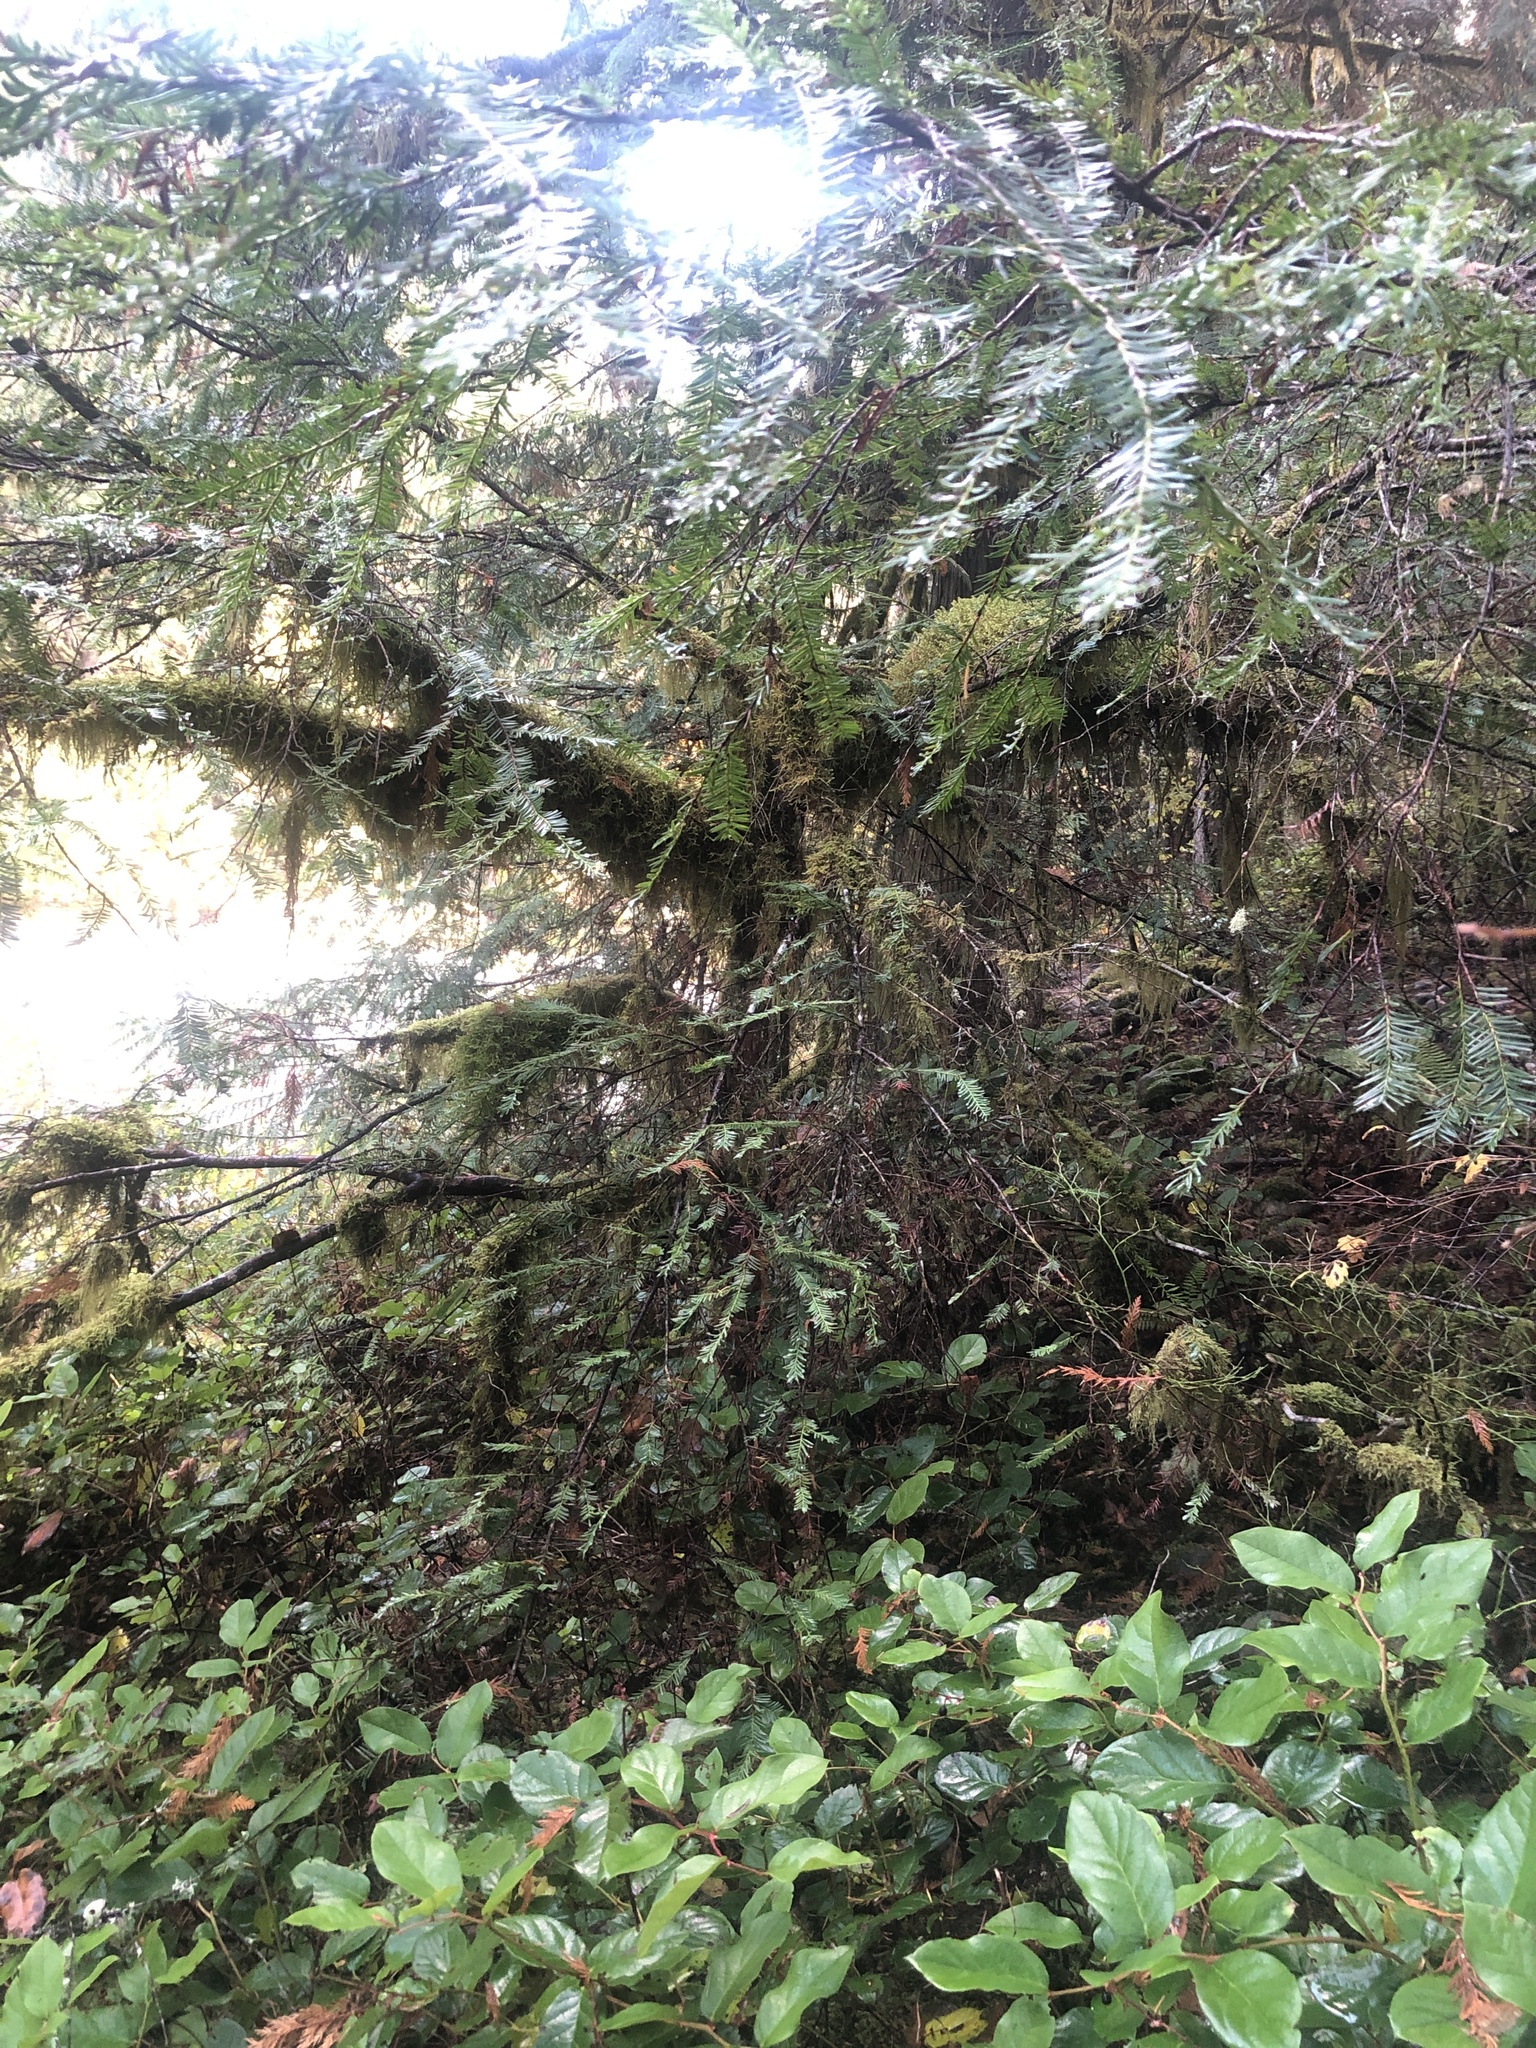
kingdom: Plantae
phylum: Tracheophyta
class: Pinopsida
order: Pinales
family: Taxaceae
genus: Taxus
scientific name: Taxus brevifolia
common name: Pacific yew
